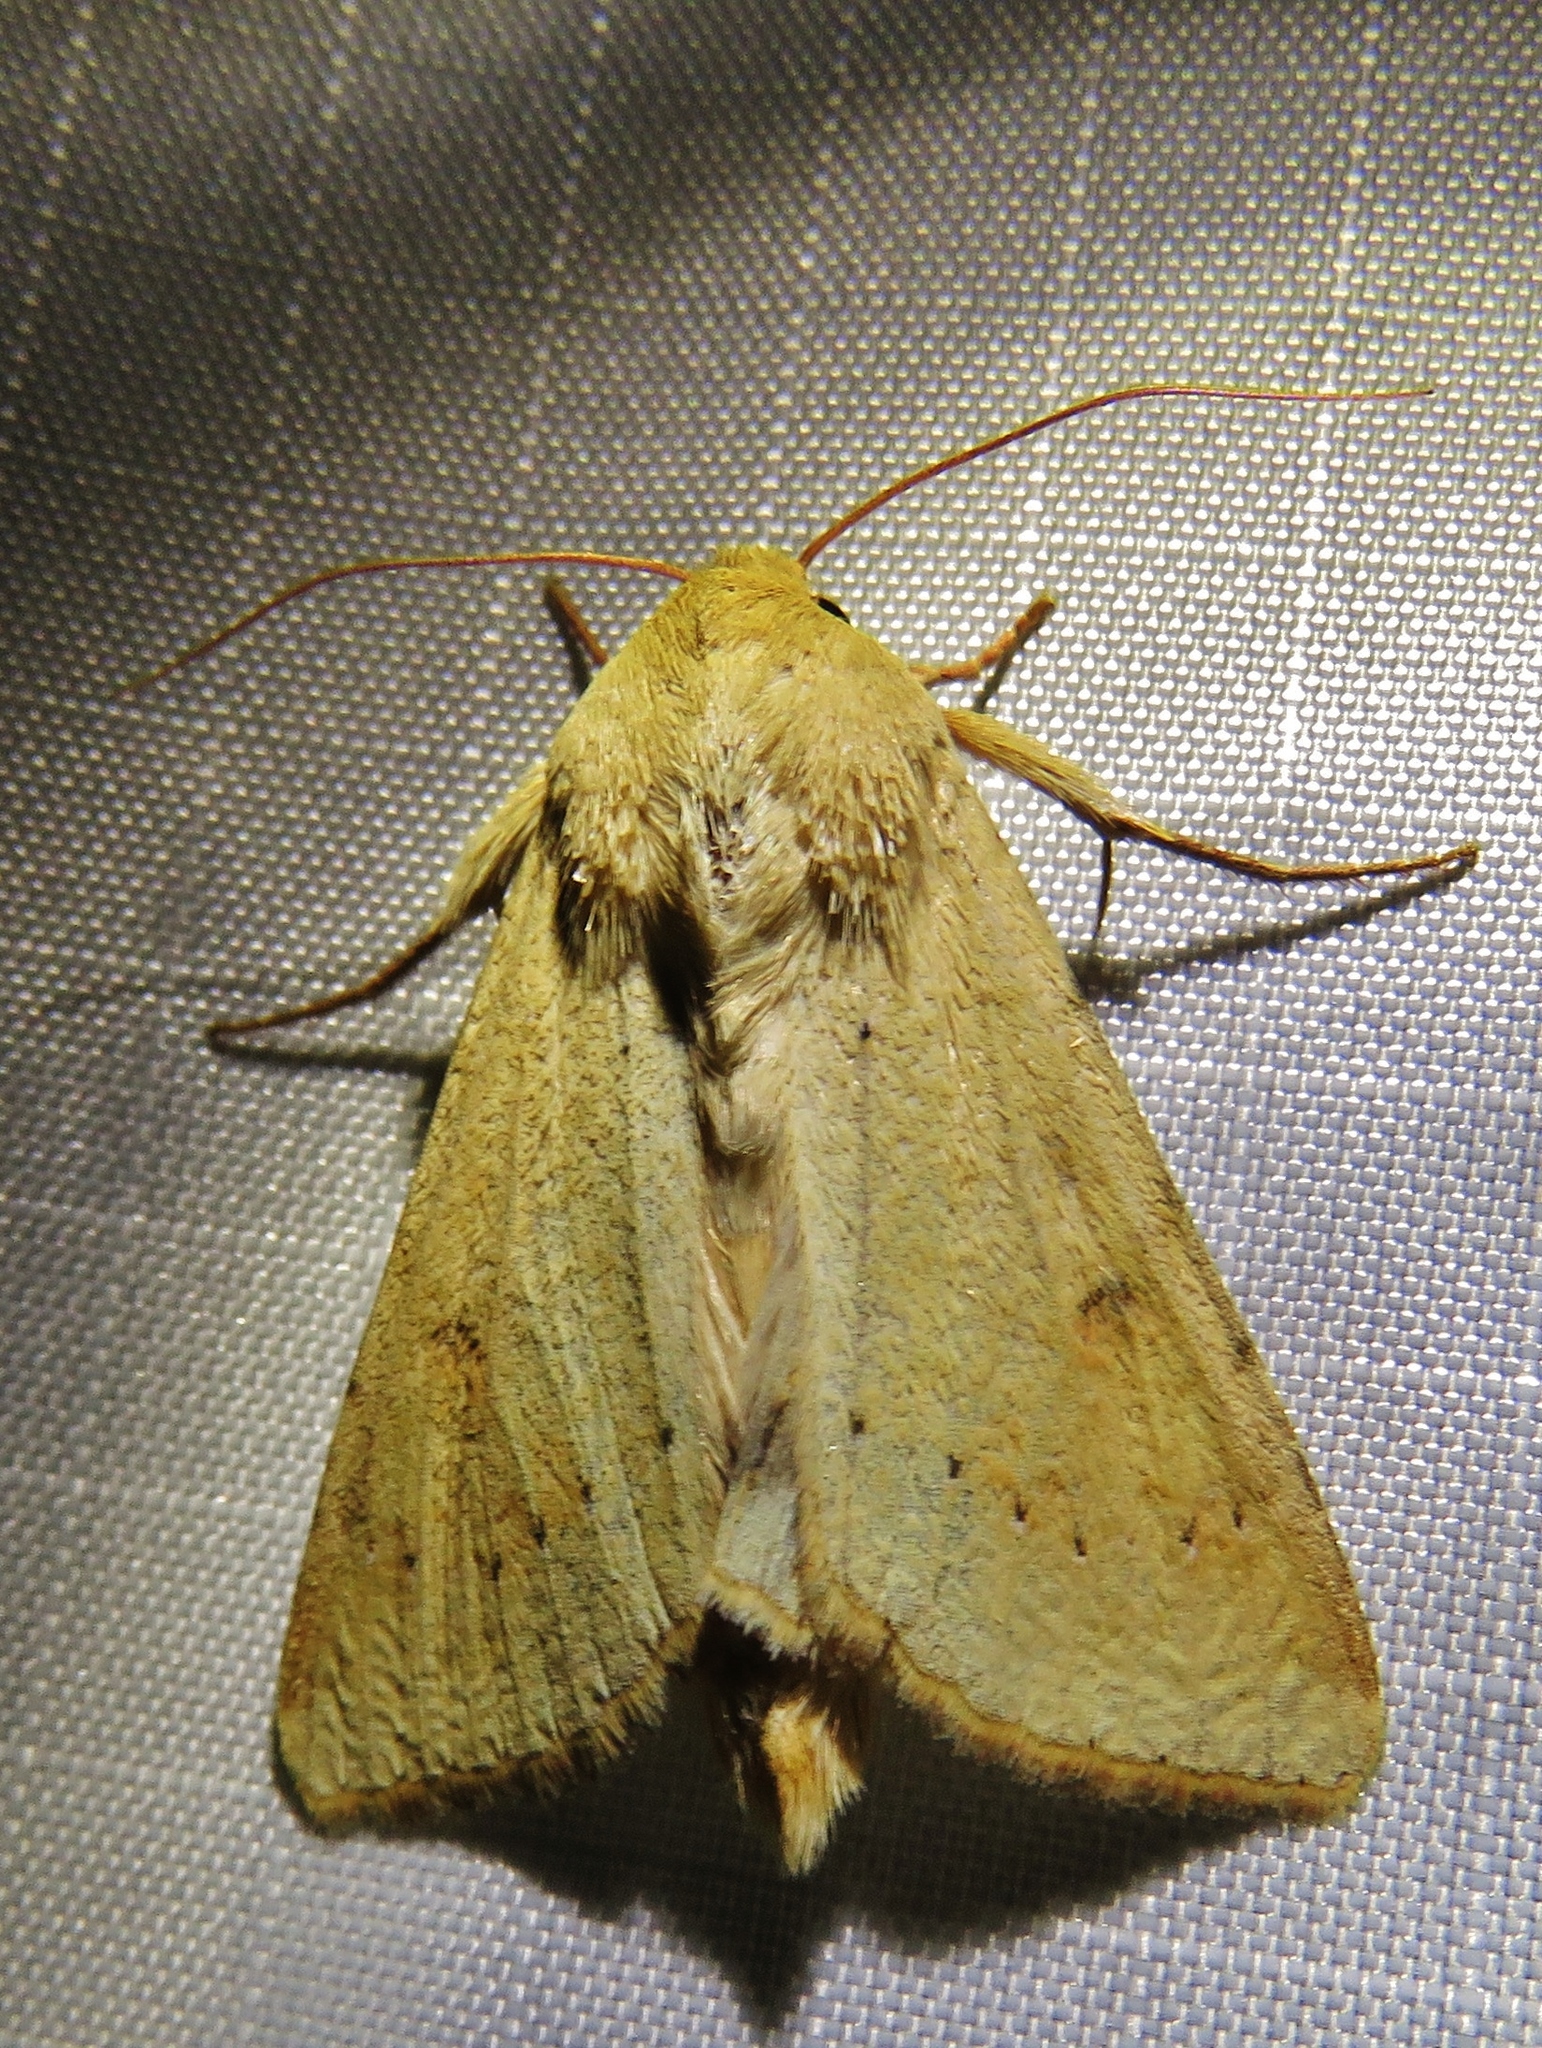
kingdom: Animalia
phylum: Arthropoda
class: Insecta
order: Lepidoptera
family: Noctuidae
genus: Helicoverpa
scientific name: Helicoverpa zea
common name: Bollworm
